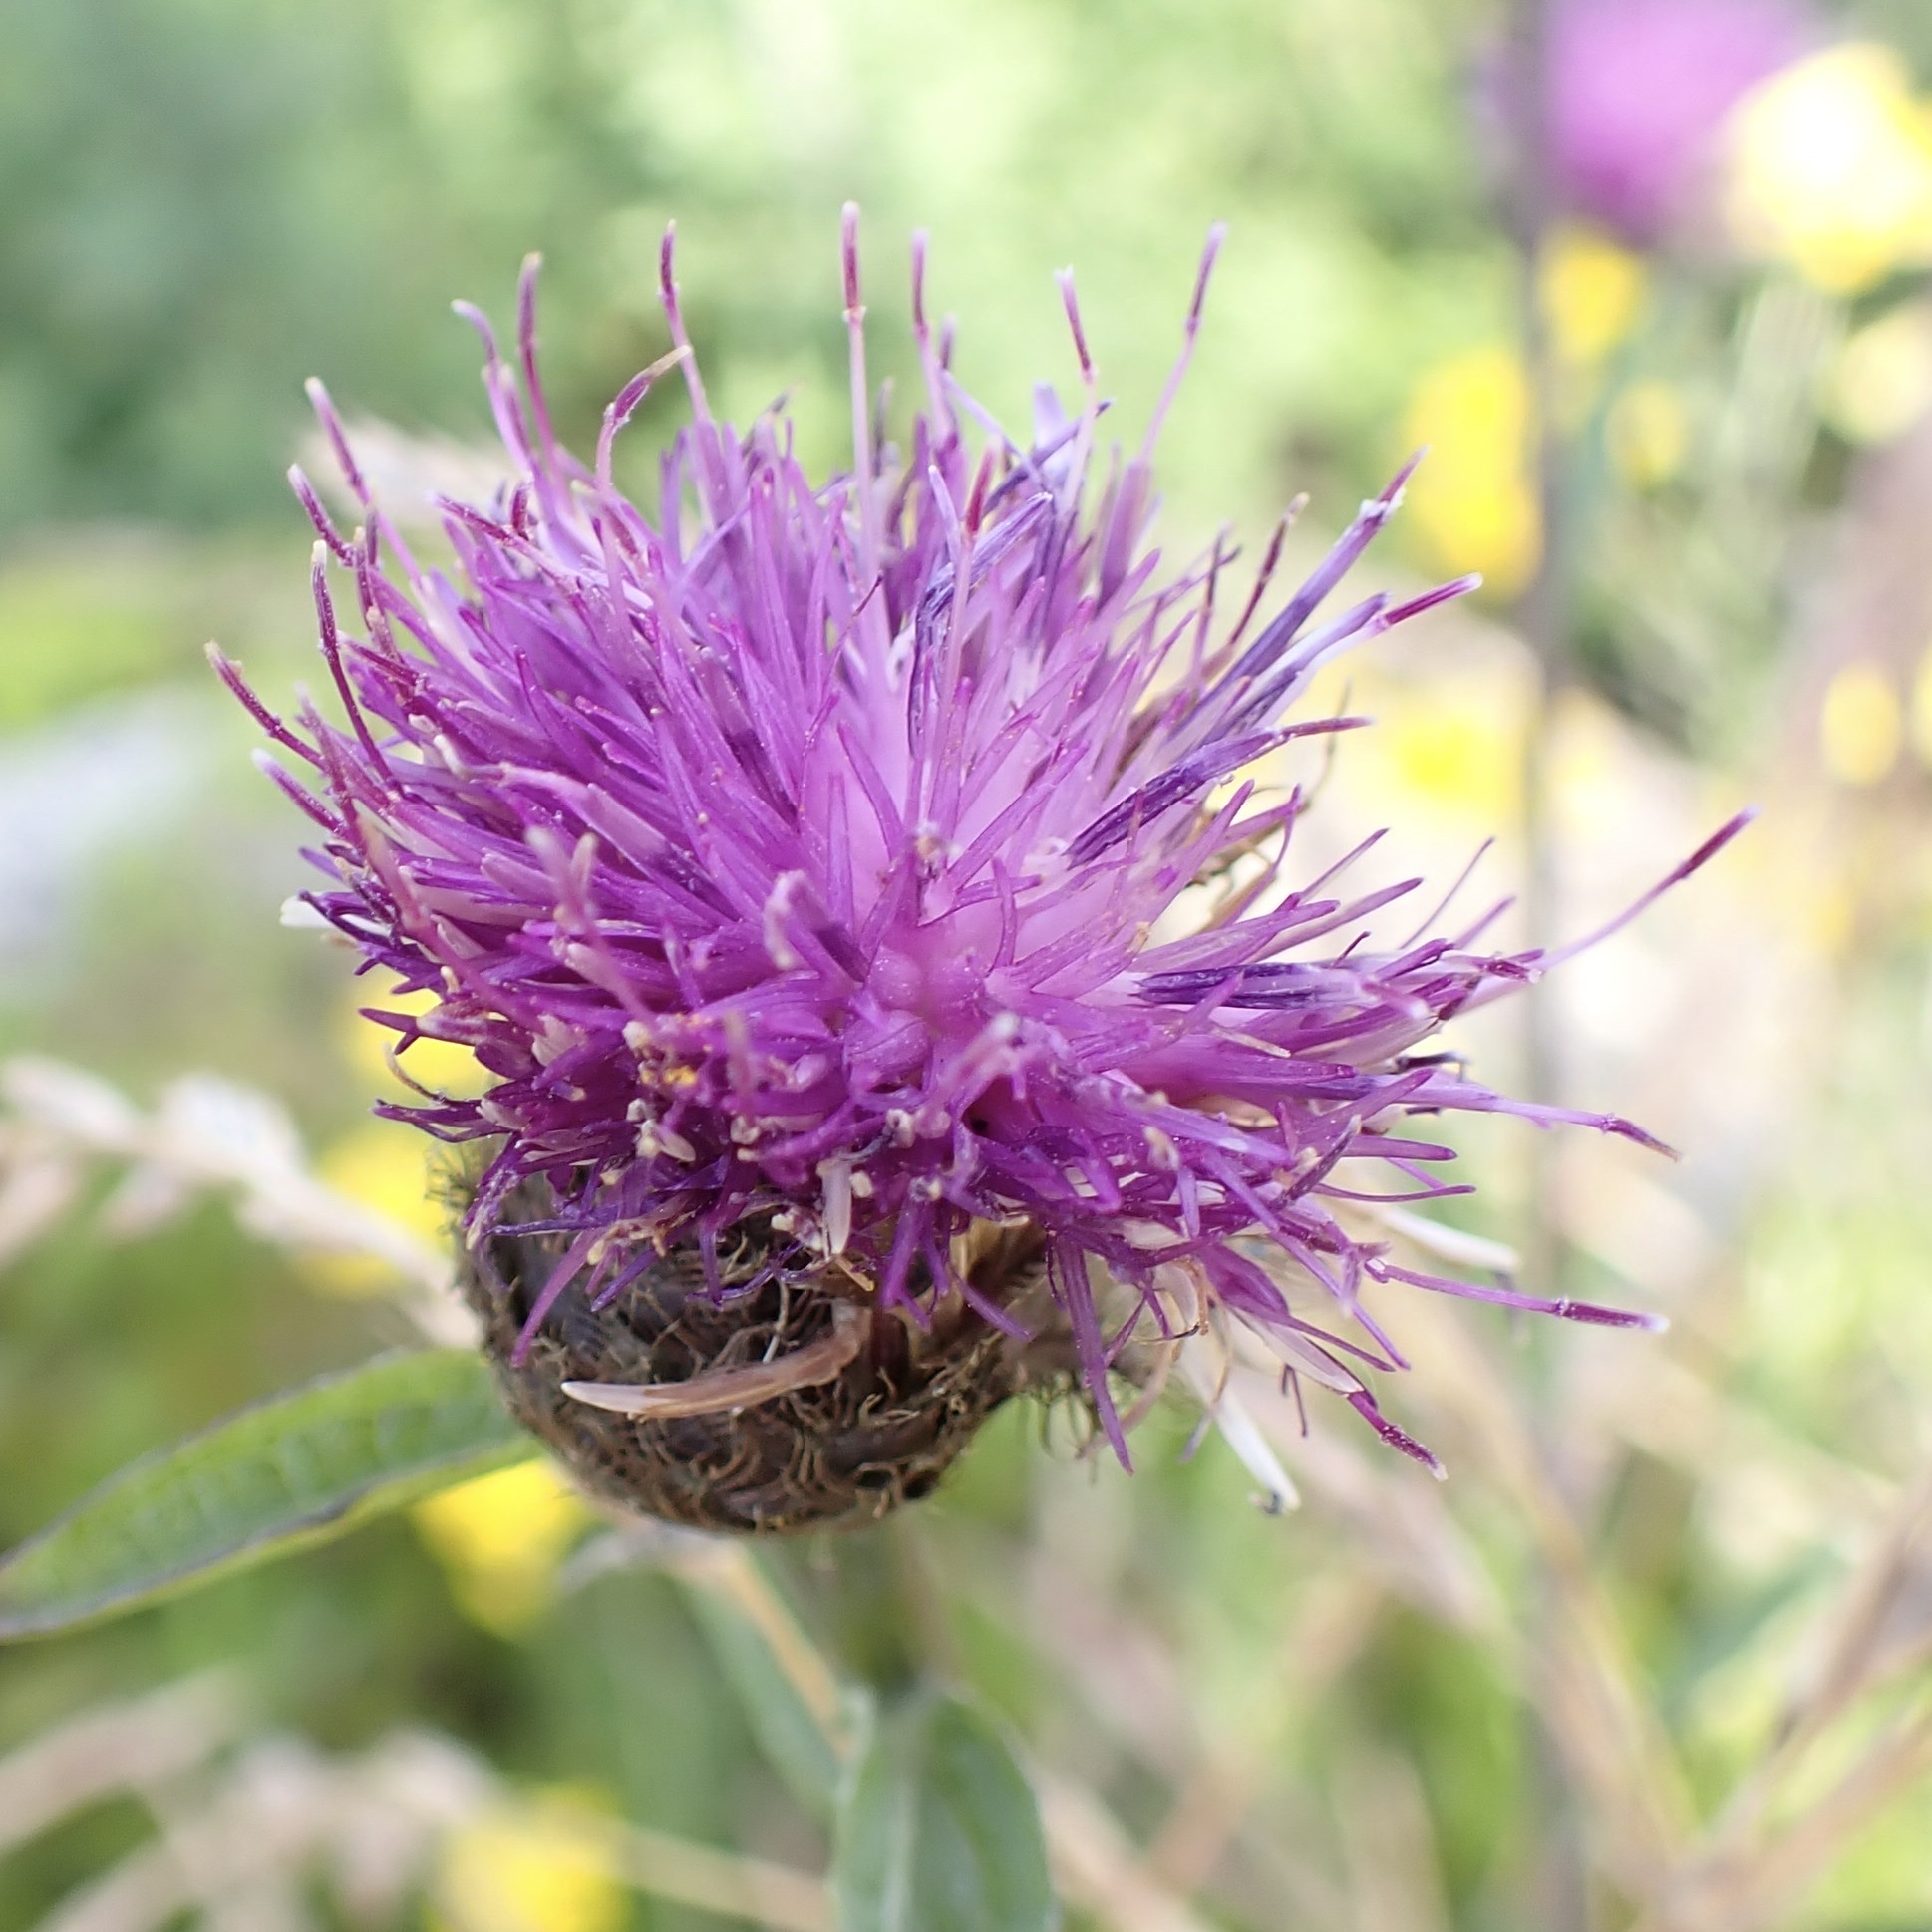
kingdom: Plantae
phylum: Tracheophyta
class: Magnoliopsida
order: Asterales
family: Asteraceae
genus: Centaurea
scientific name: Centaurea nigra
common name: Lesser knapweed
